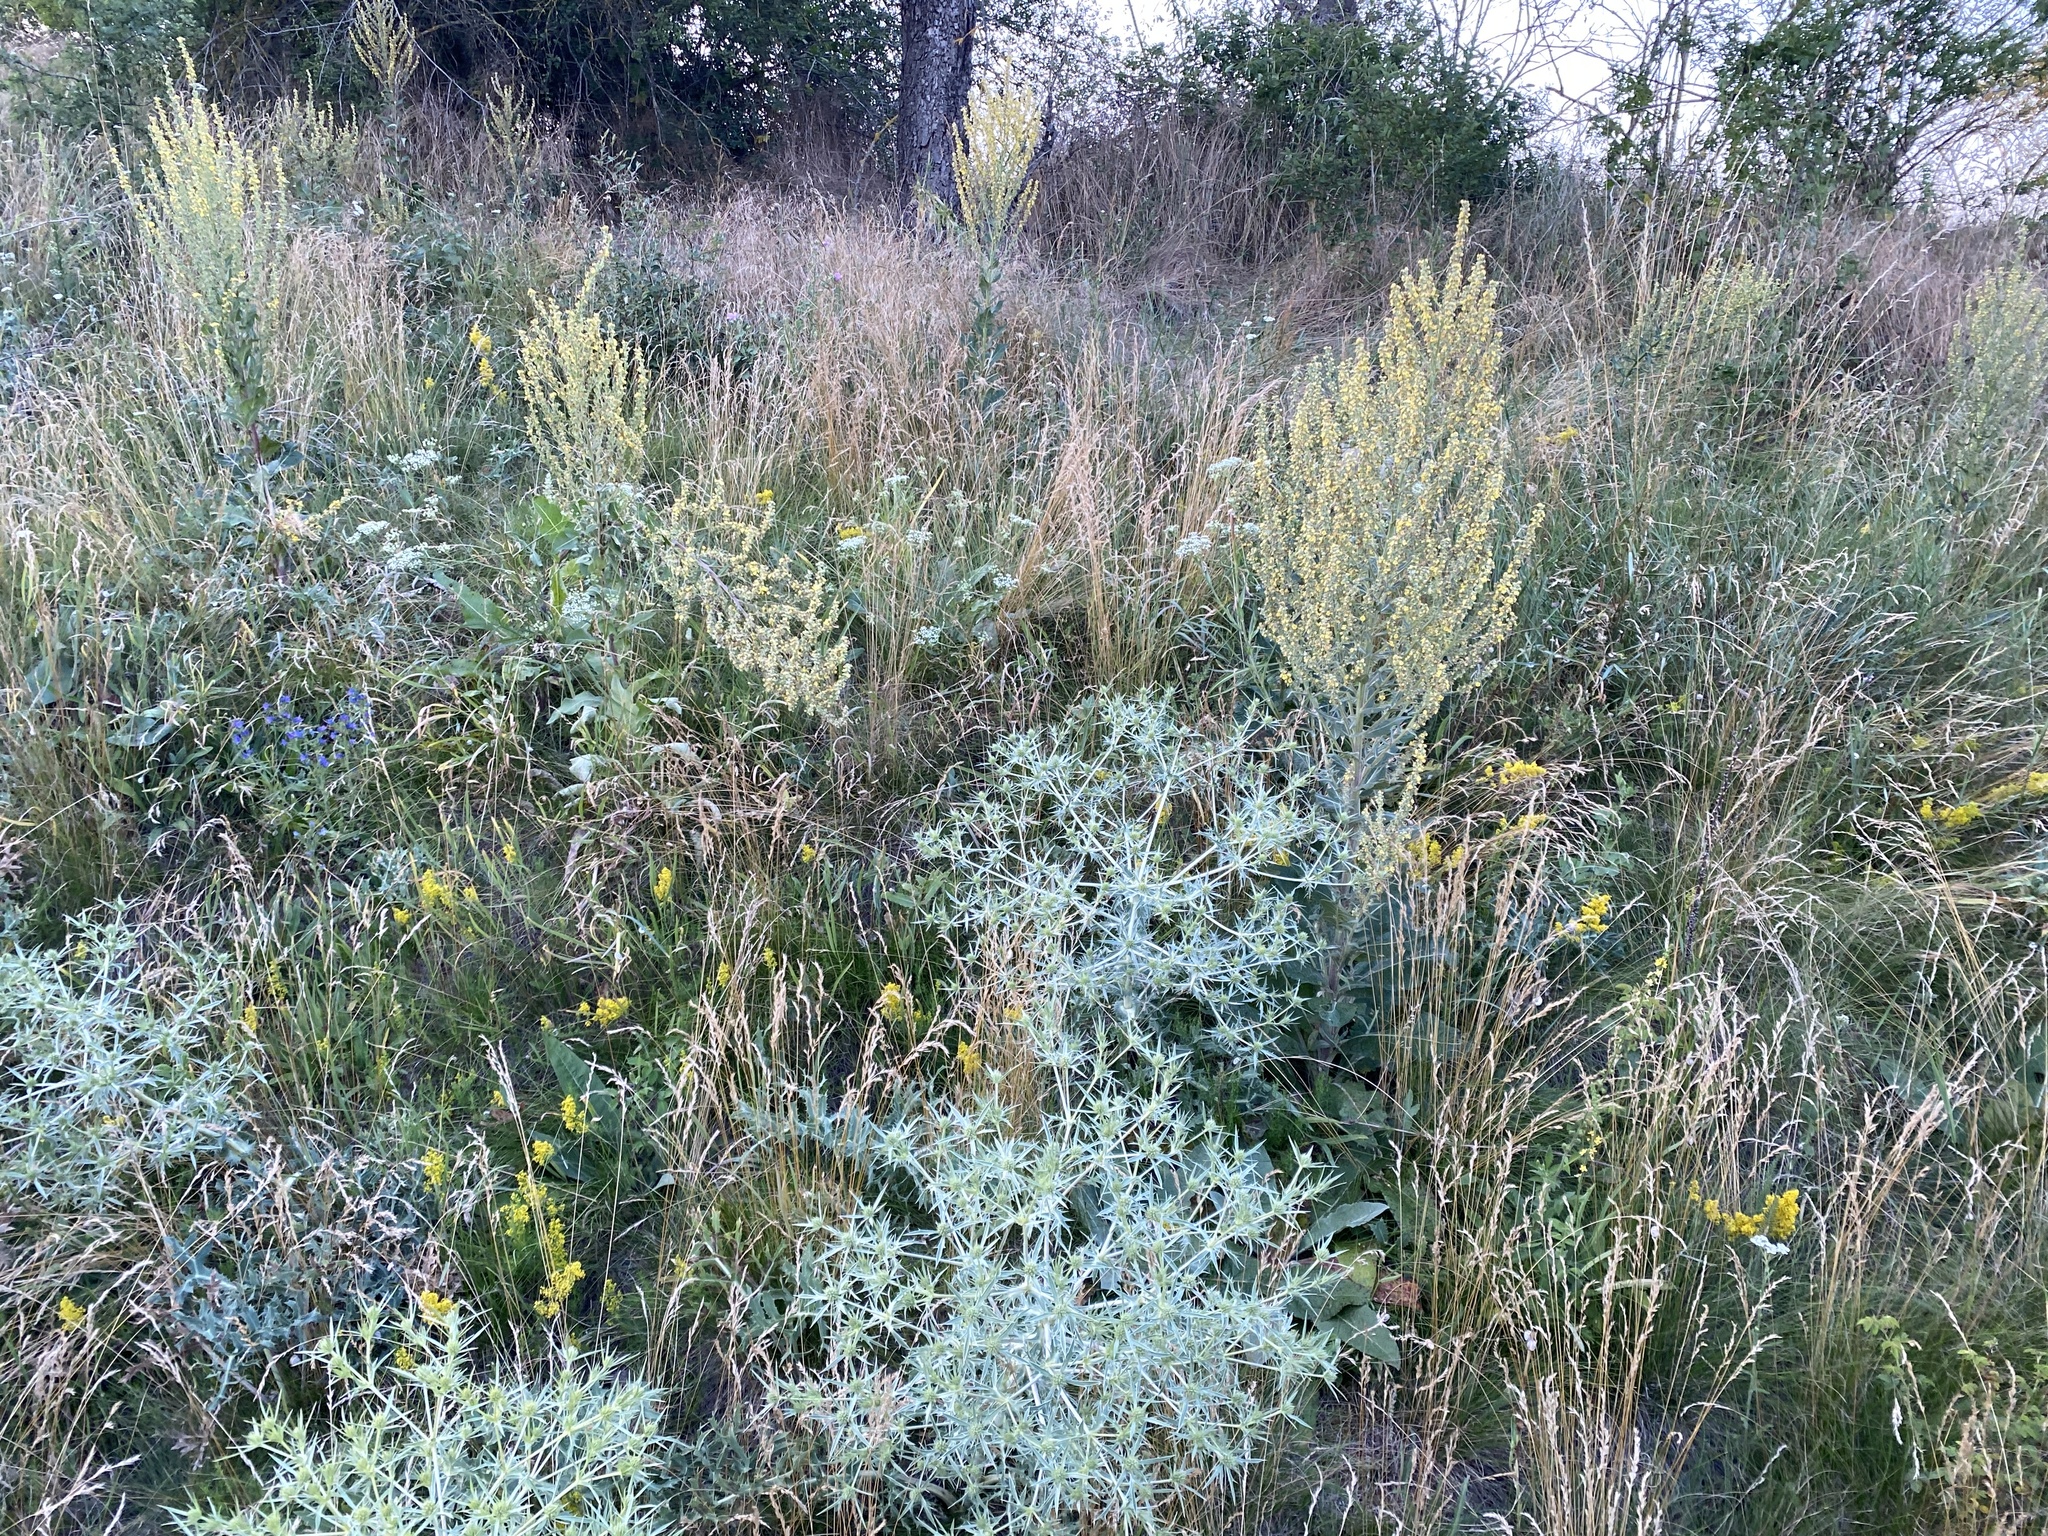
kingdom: Plantae
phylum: Tracheophyta
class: Magnoliopsida
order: Apiales
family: Apiaceae
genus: Eryngium
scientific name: Eryngium campestre
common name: Field eryngo
